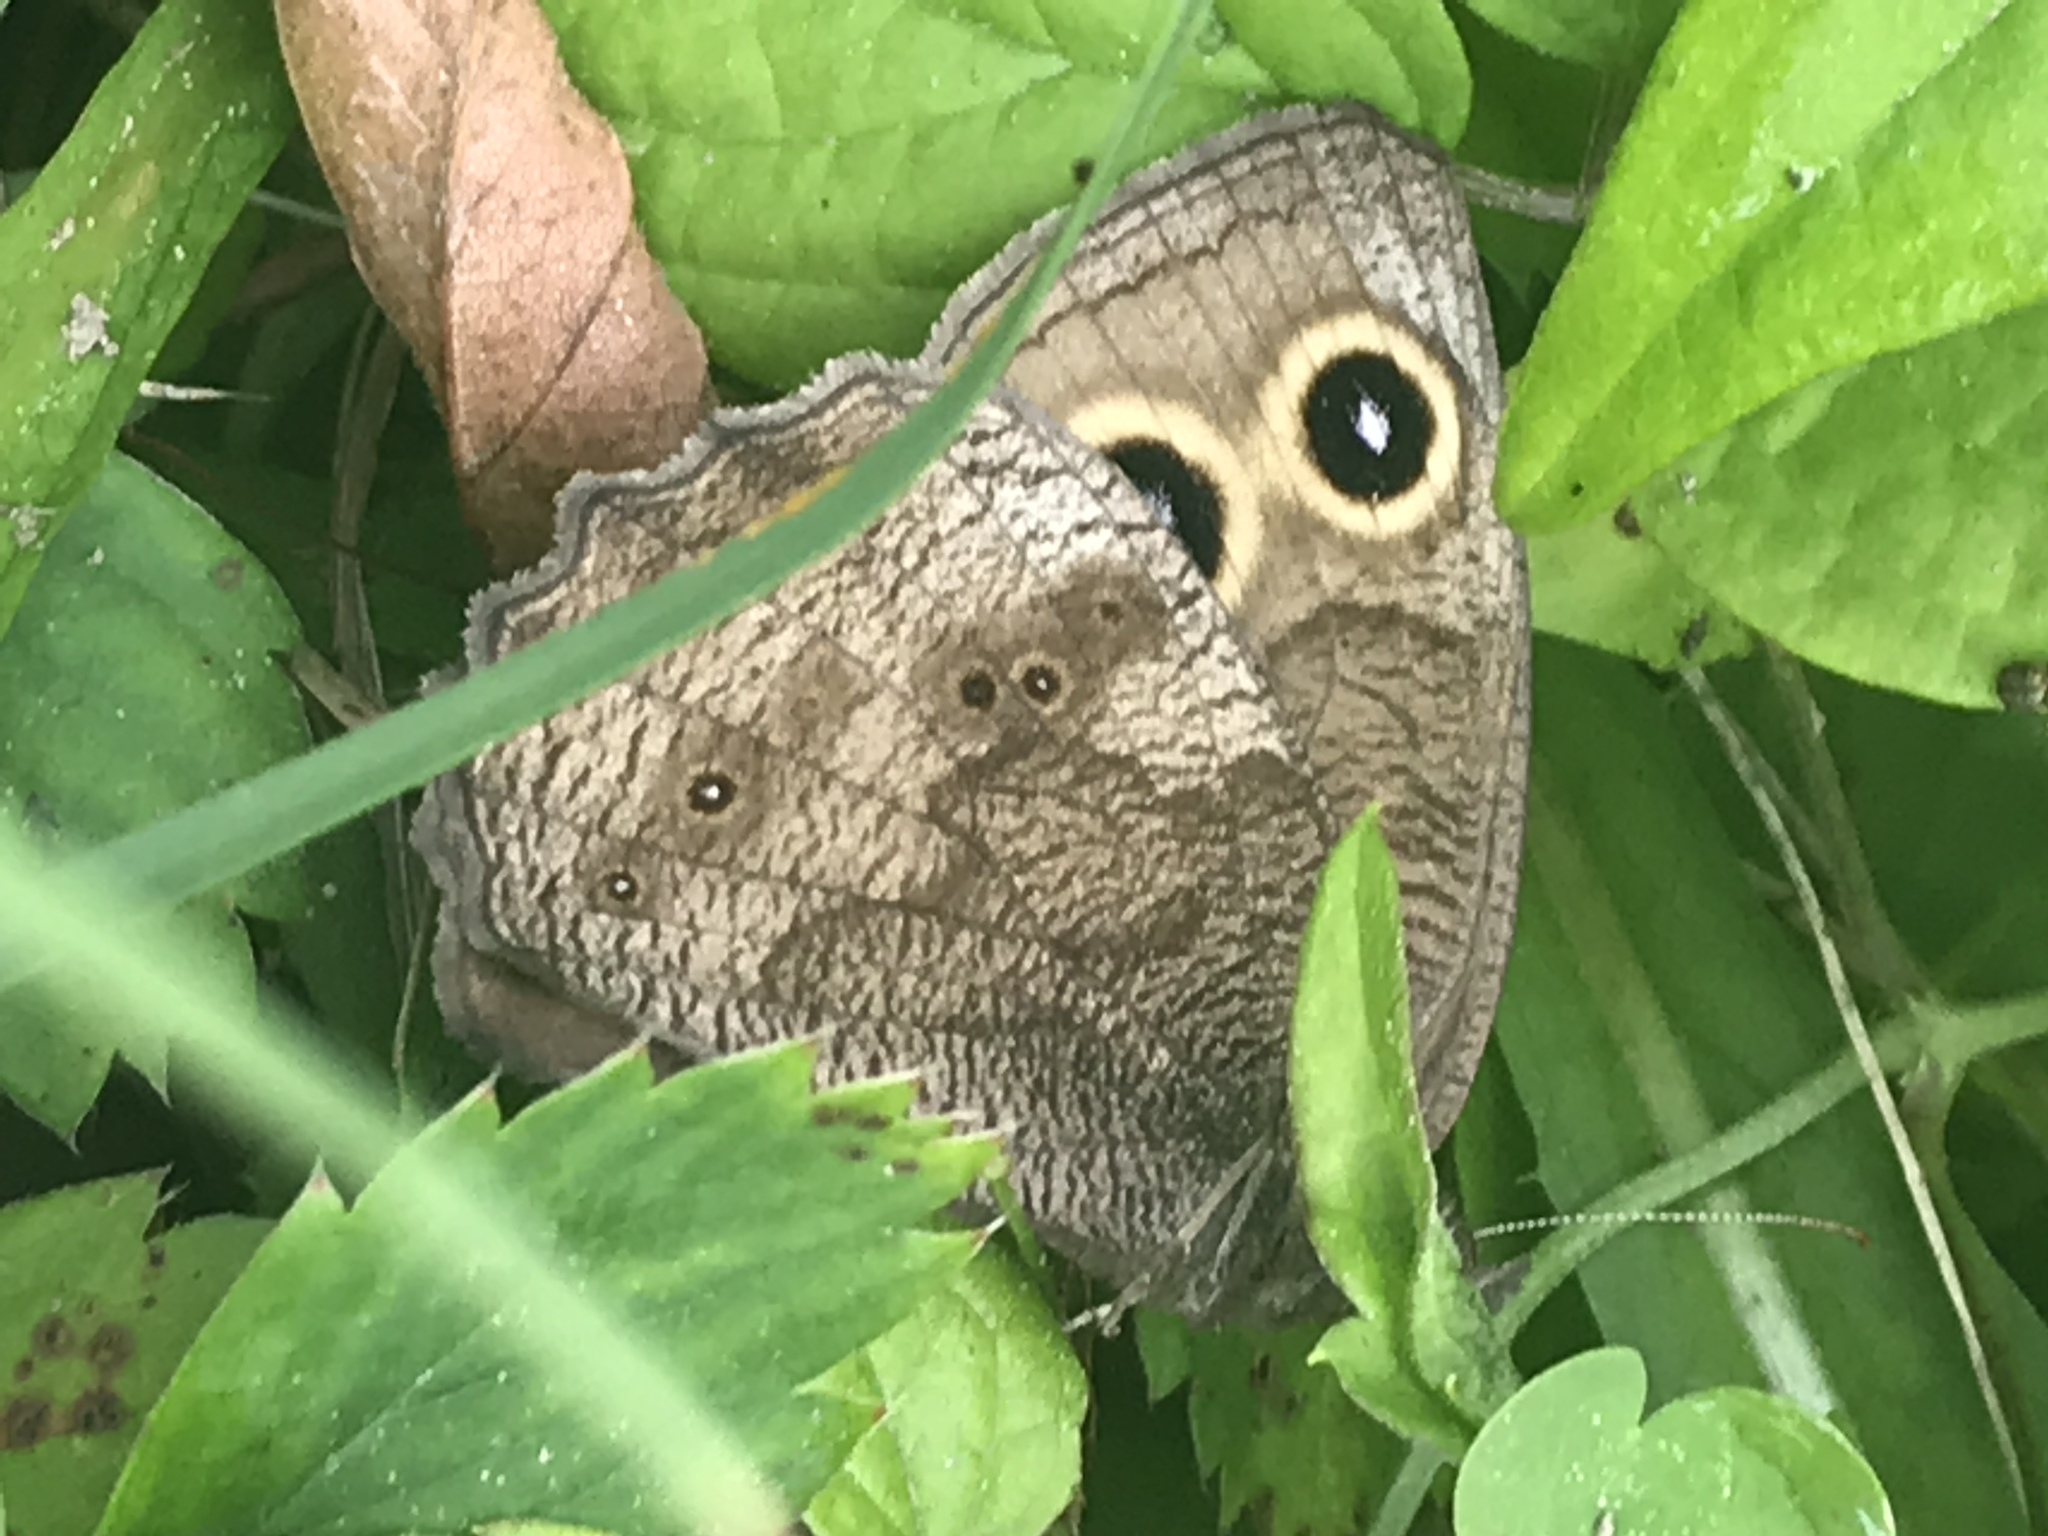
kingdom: Animalia
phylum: Arthropoda
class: Insecta
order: Lepidoptera
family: Nymphalidae
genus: Cercyonis
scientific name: Cercyonis pegala
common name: Common wood-nymph
